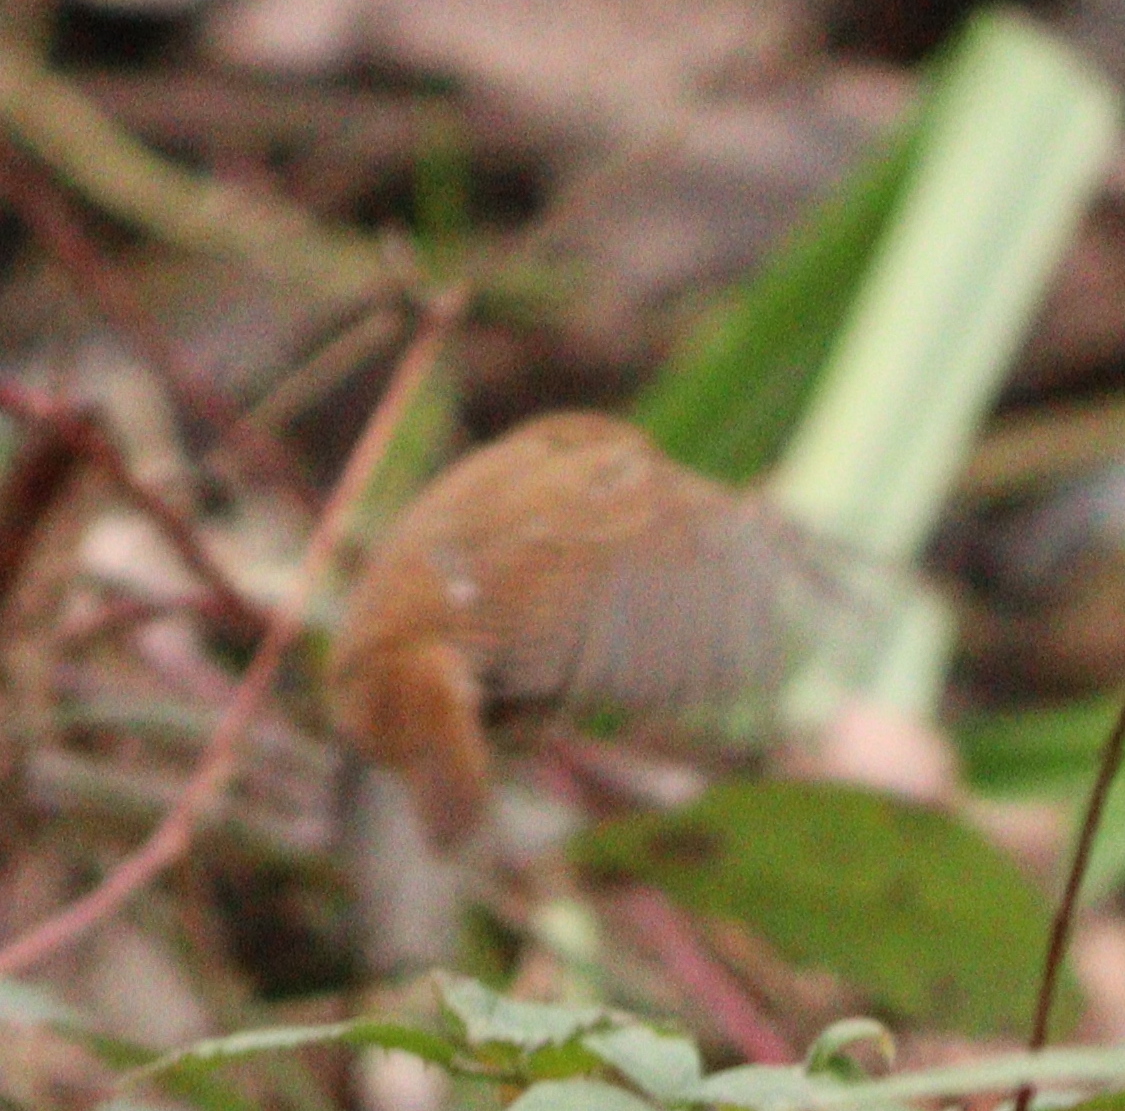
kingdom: Animalia
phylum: Chordata
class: Aves
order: Passeriformes
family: Troglodytidae
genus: Troglodytes
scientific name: Troglodytes troglodytes
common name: Eurasian wren
